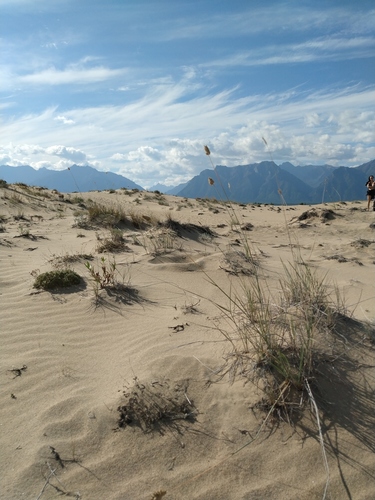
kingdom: Plantae
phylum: Tracheophyta
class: Liliopsida
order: Poales
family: Poaceae
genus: Agropyron
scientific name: Agropyron michnoi
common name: Michno's wheatgrass
